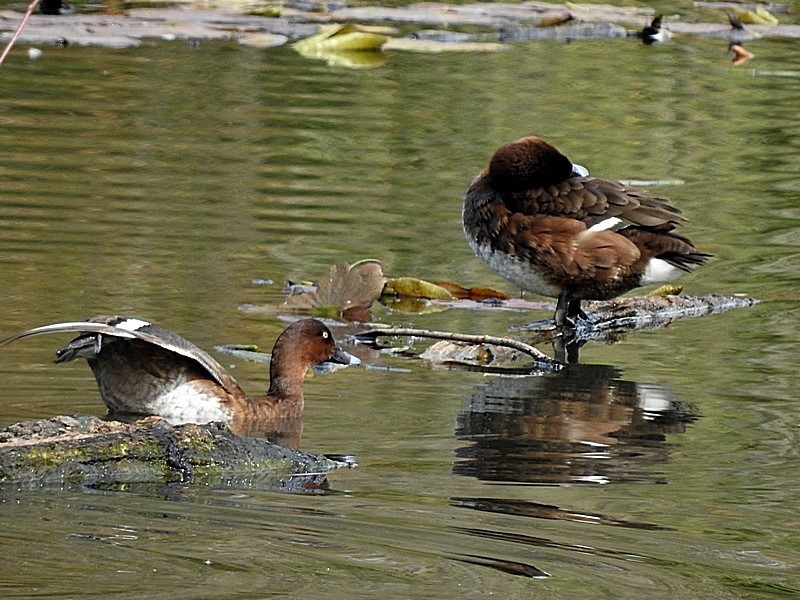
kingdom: Animalia
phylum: Chordata
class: Aves
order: Anseriformes
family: Anatidae
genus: Aythya
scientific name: Aythya australis
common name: Hardhead
